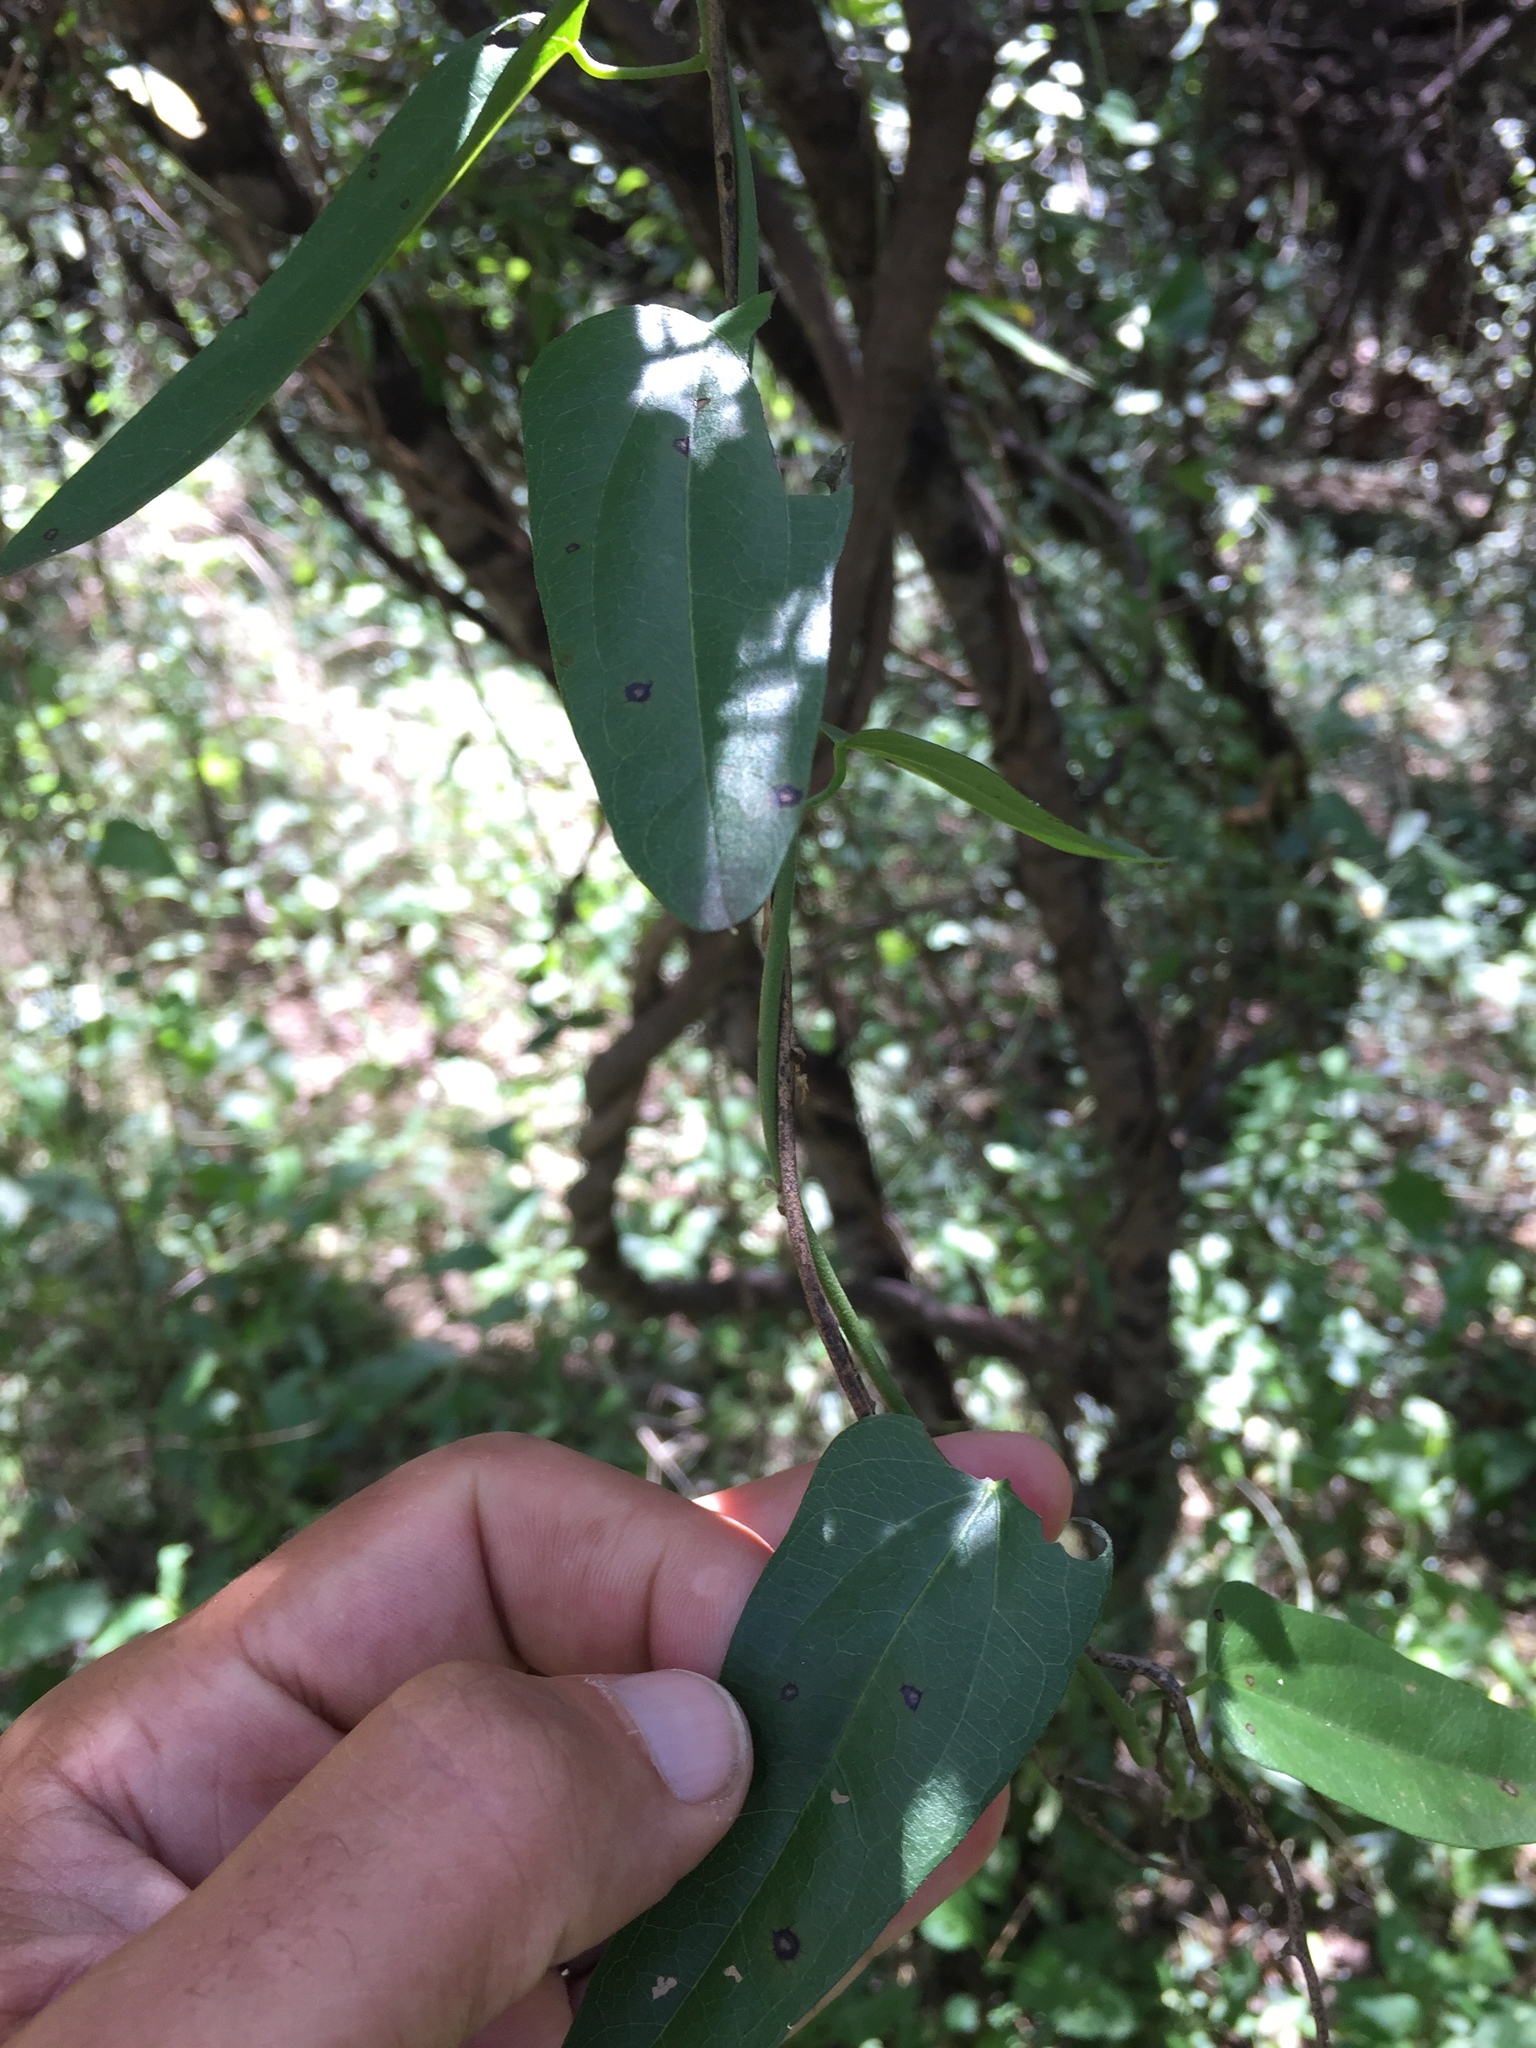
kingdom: Plantae
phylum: Tracheophyta
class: Magnoliopsida
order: Ranunculales
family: Menispermaceae
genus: Cocculus
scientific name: Cocculus diversifolius
